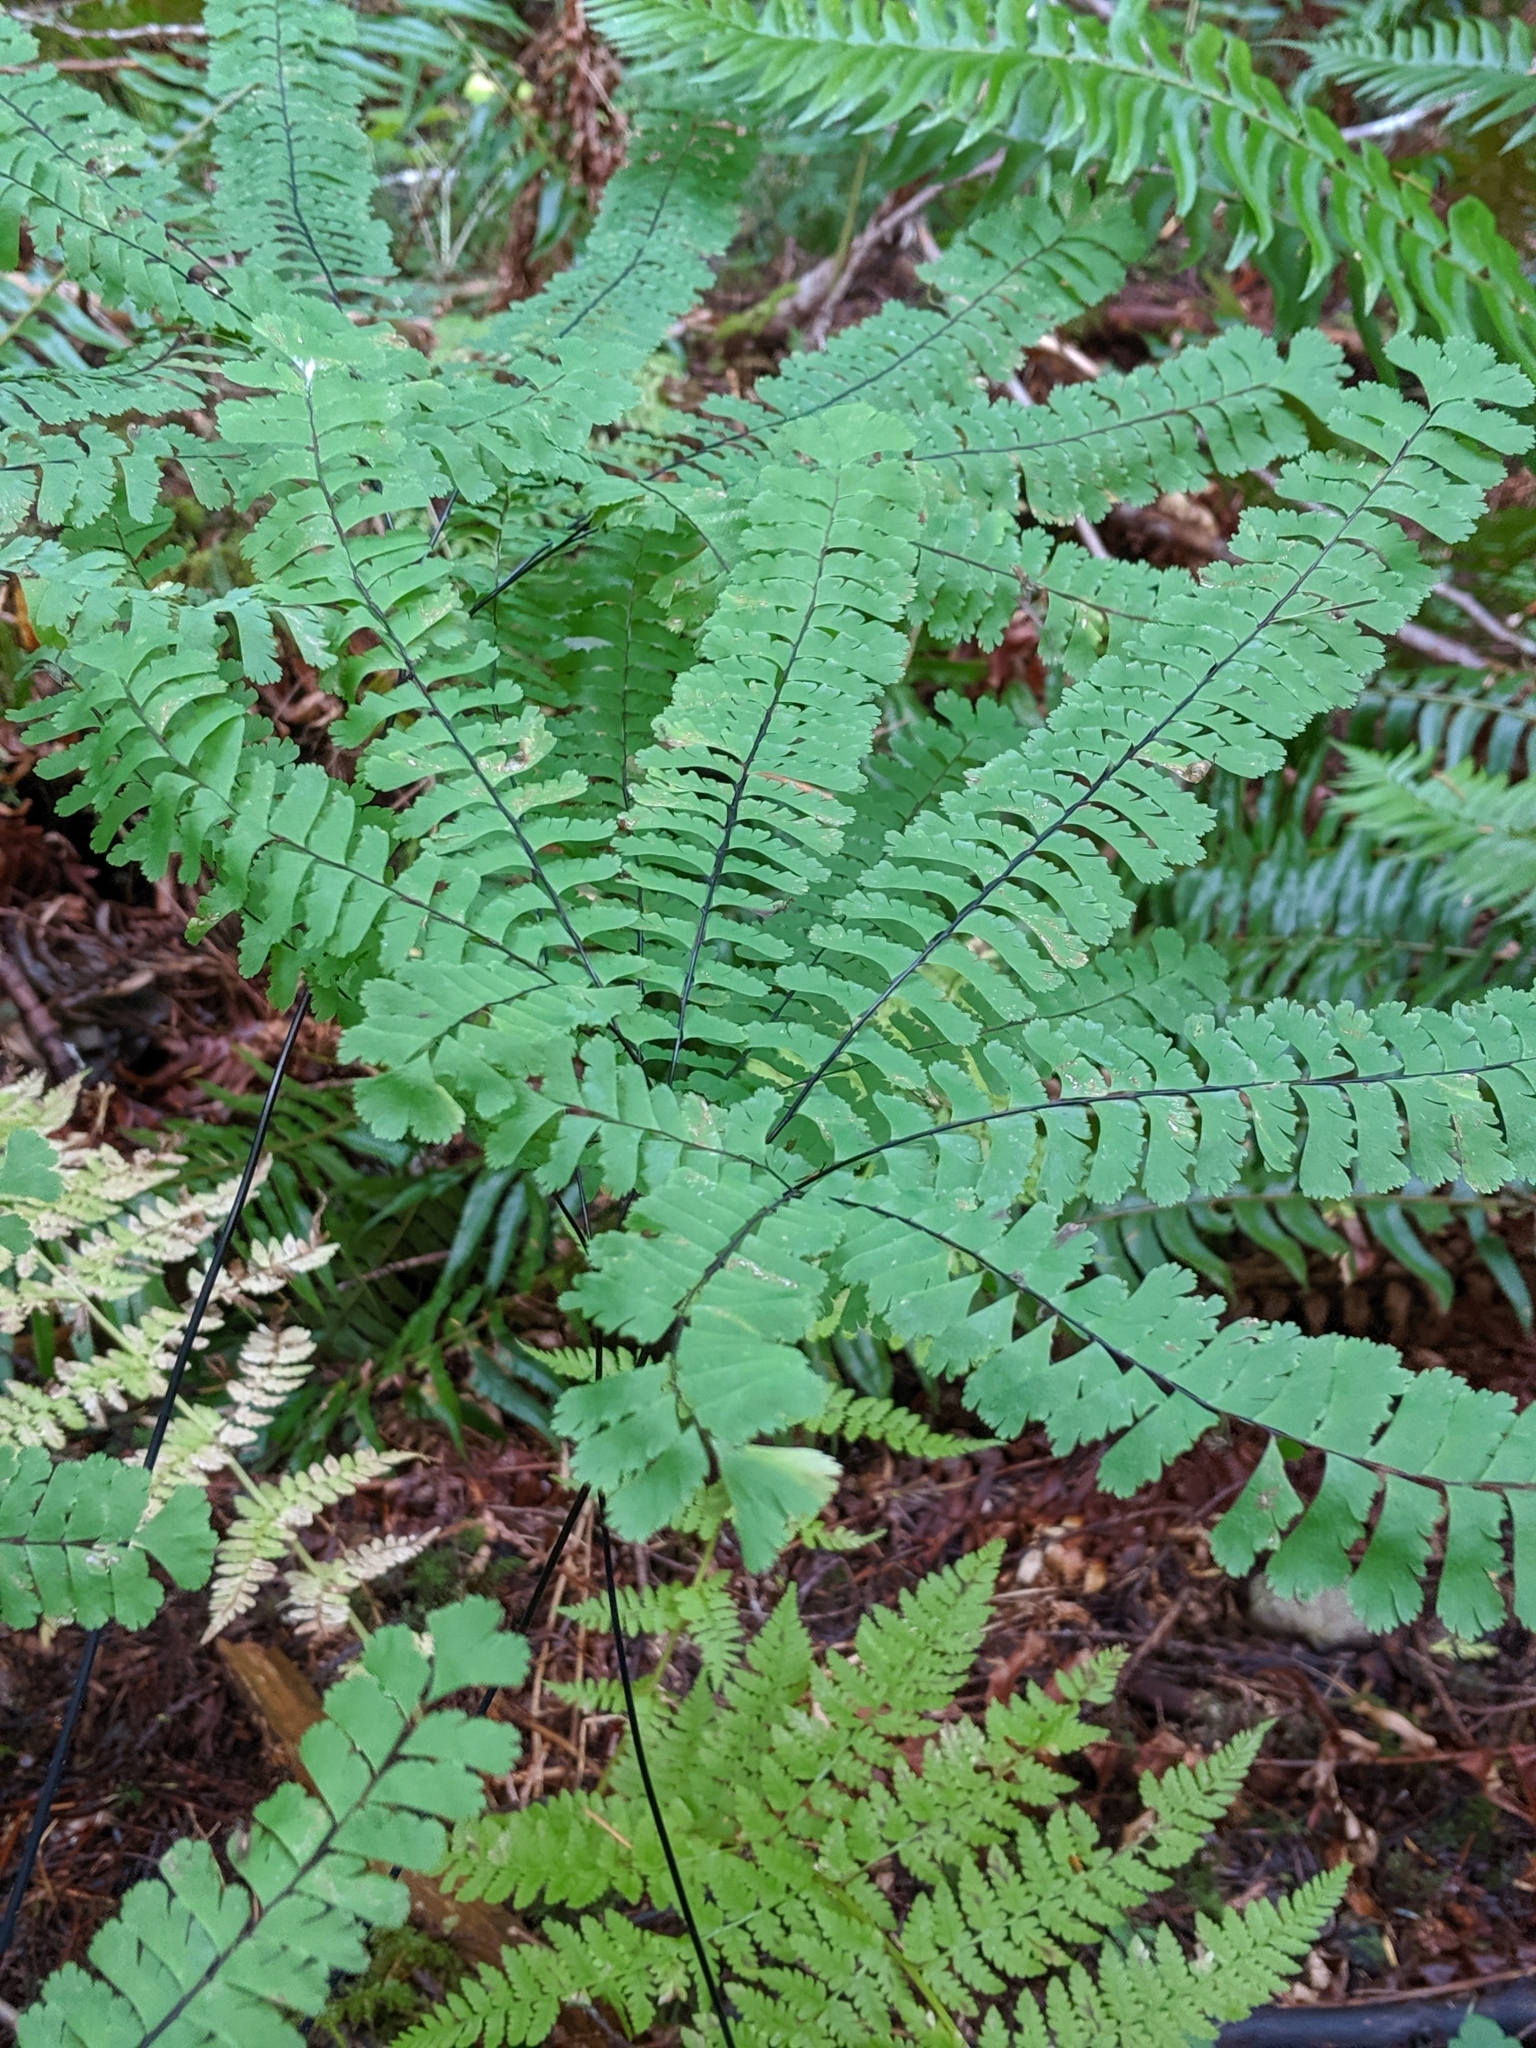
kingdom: Plantae
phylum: Tracheophyta
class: Polypodiopsida
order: Polypodiales
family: Pteridaceae
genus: Adiantum
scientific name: Adiantum aleuticum
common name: Aleutian maidenhair fern
